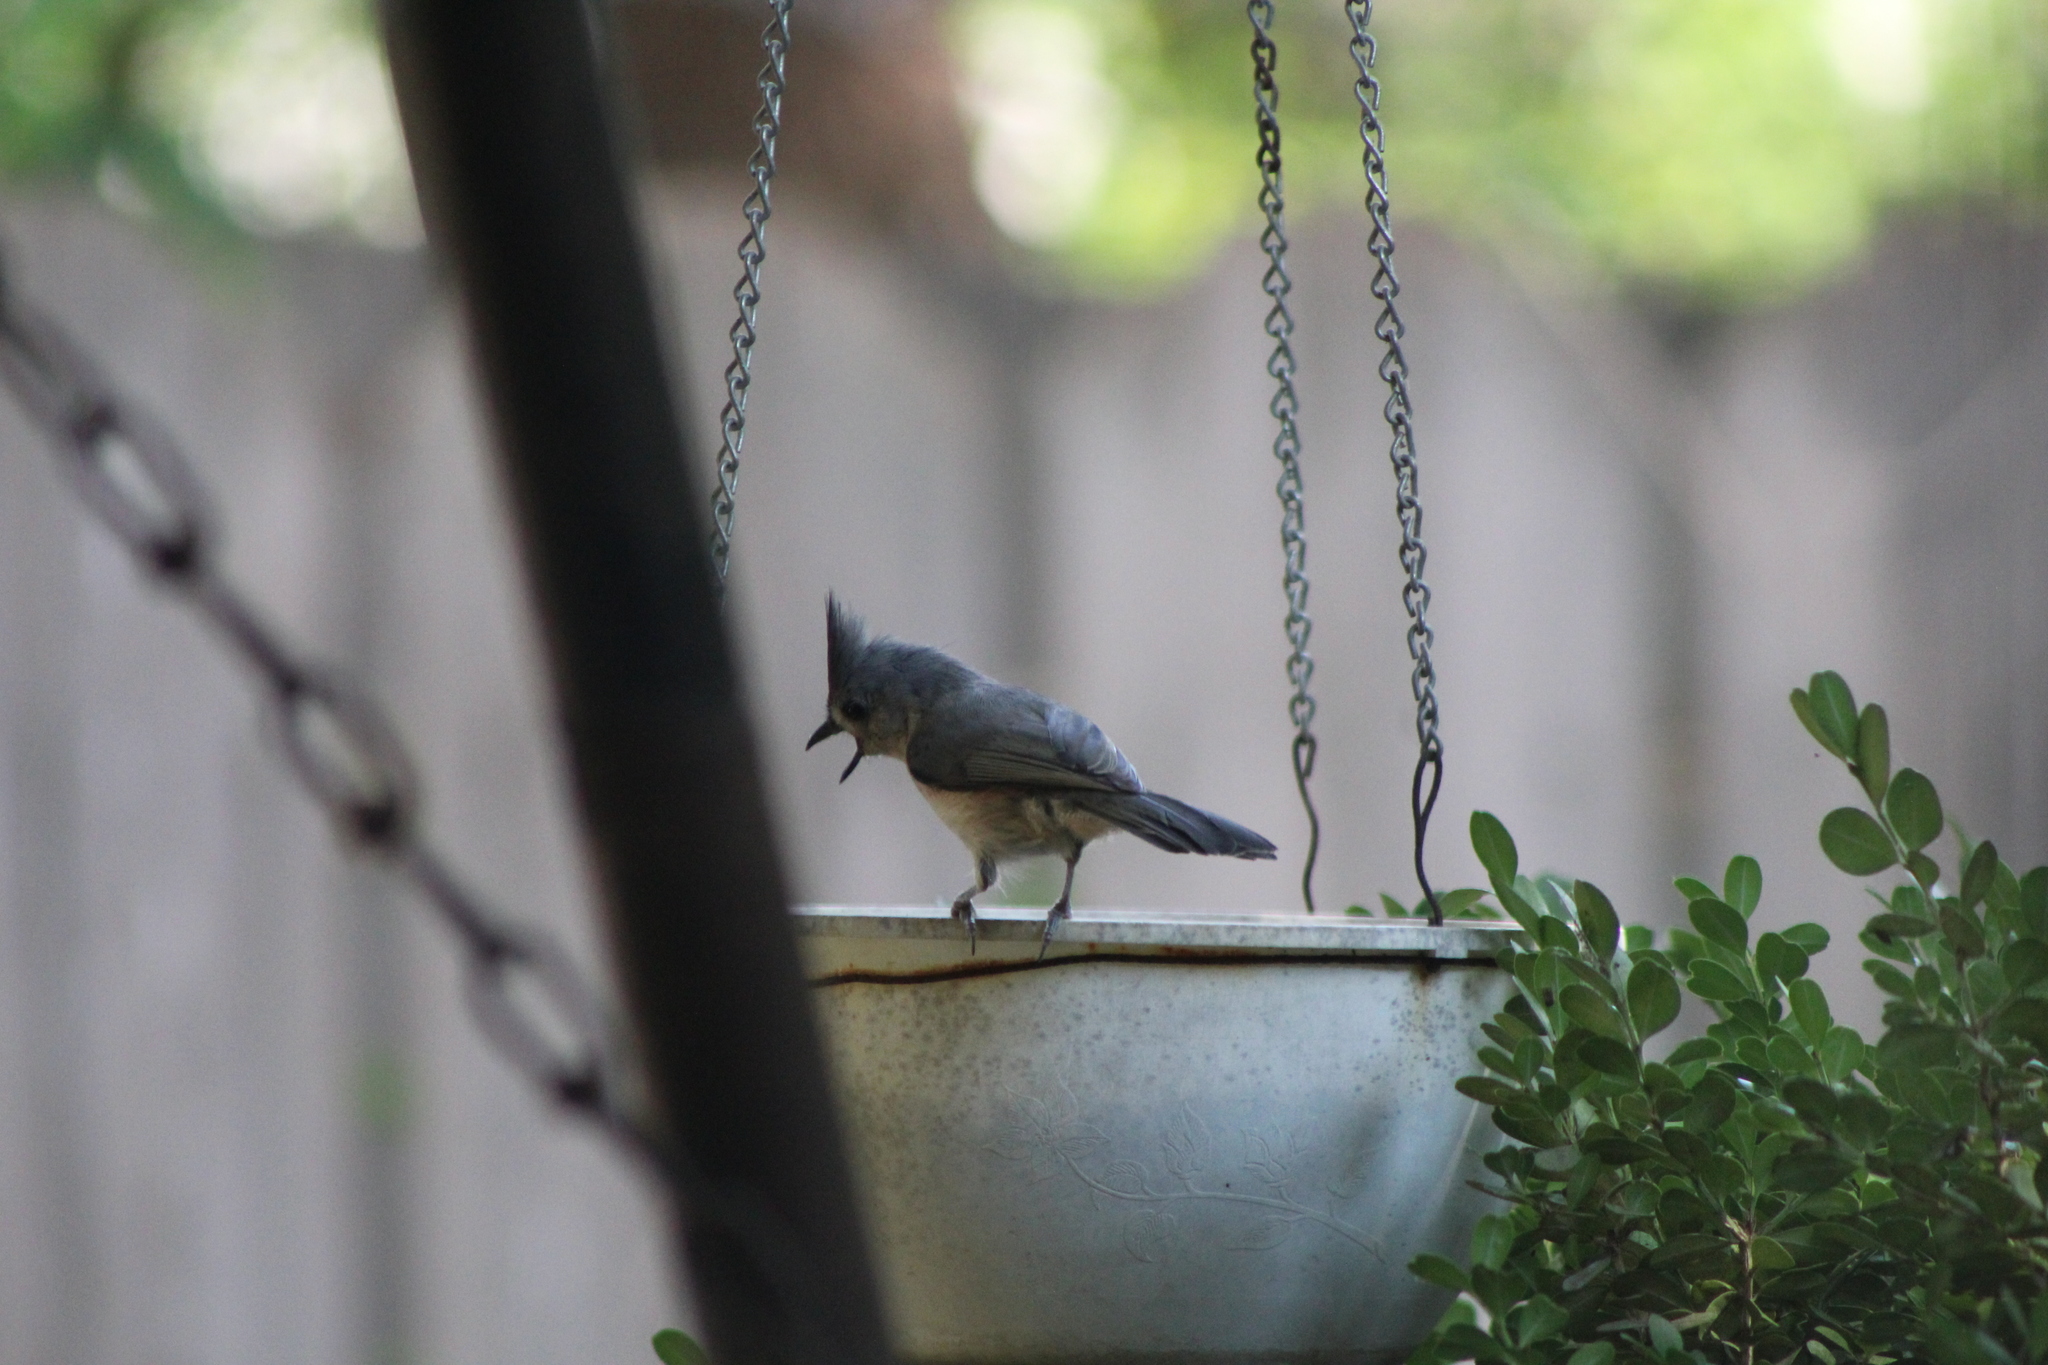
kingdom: Animalia
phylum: Chordata
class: Aves
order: Passeriformes
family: Paridae
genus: Baeolophus
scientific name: Baeolophus bicolor
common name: Tufted titmouse
